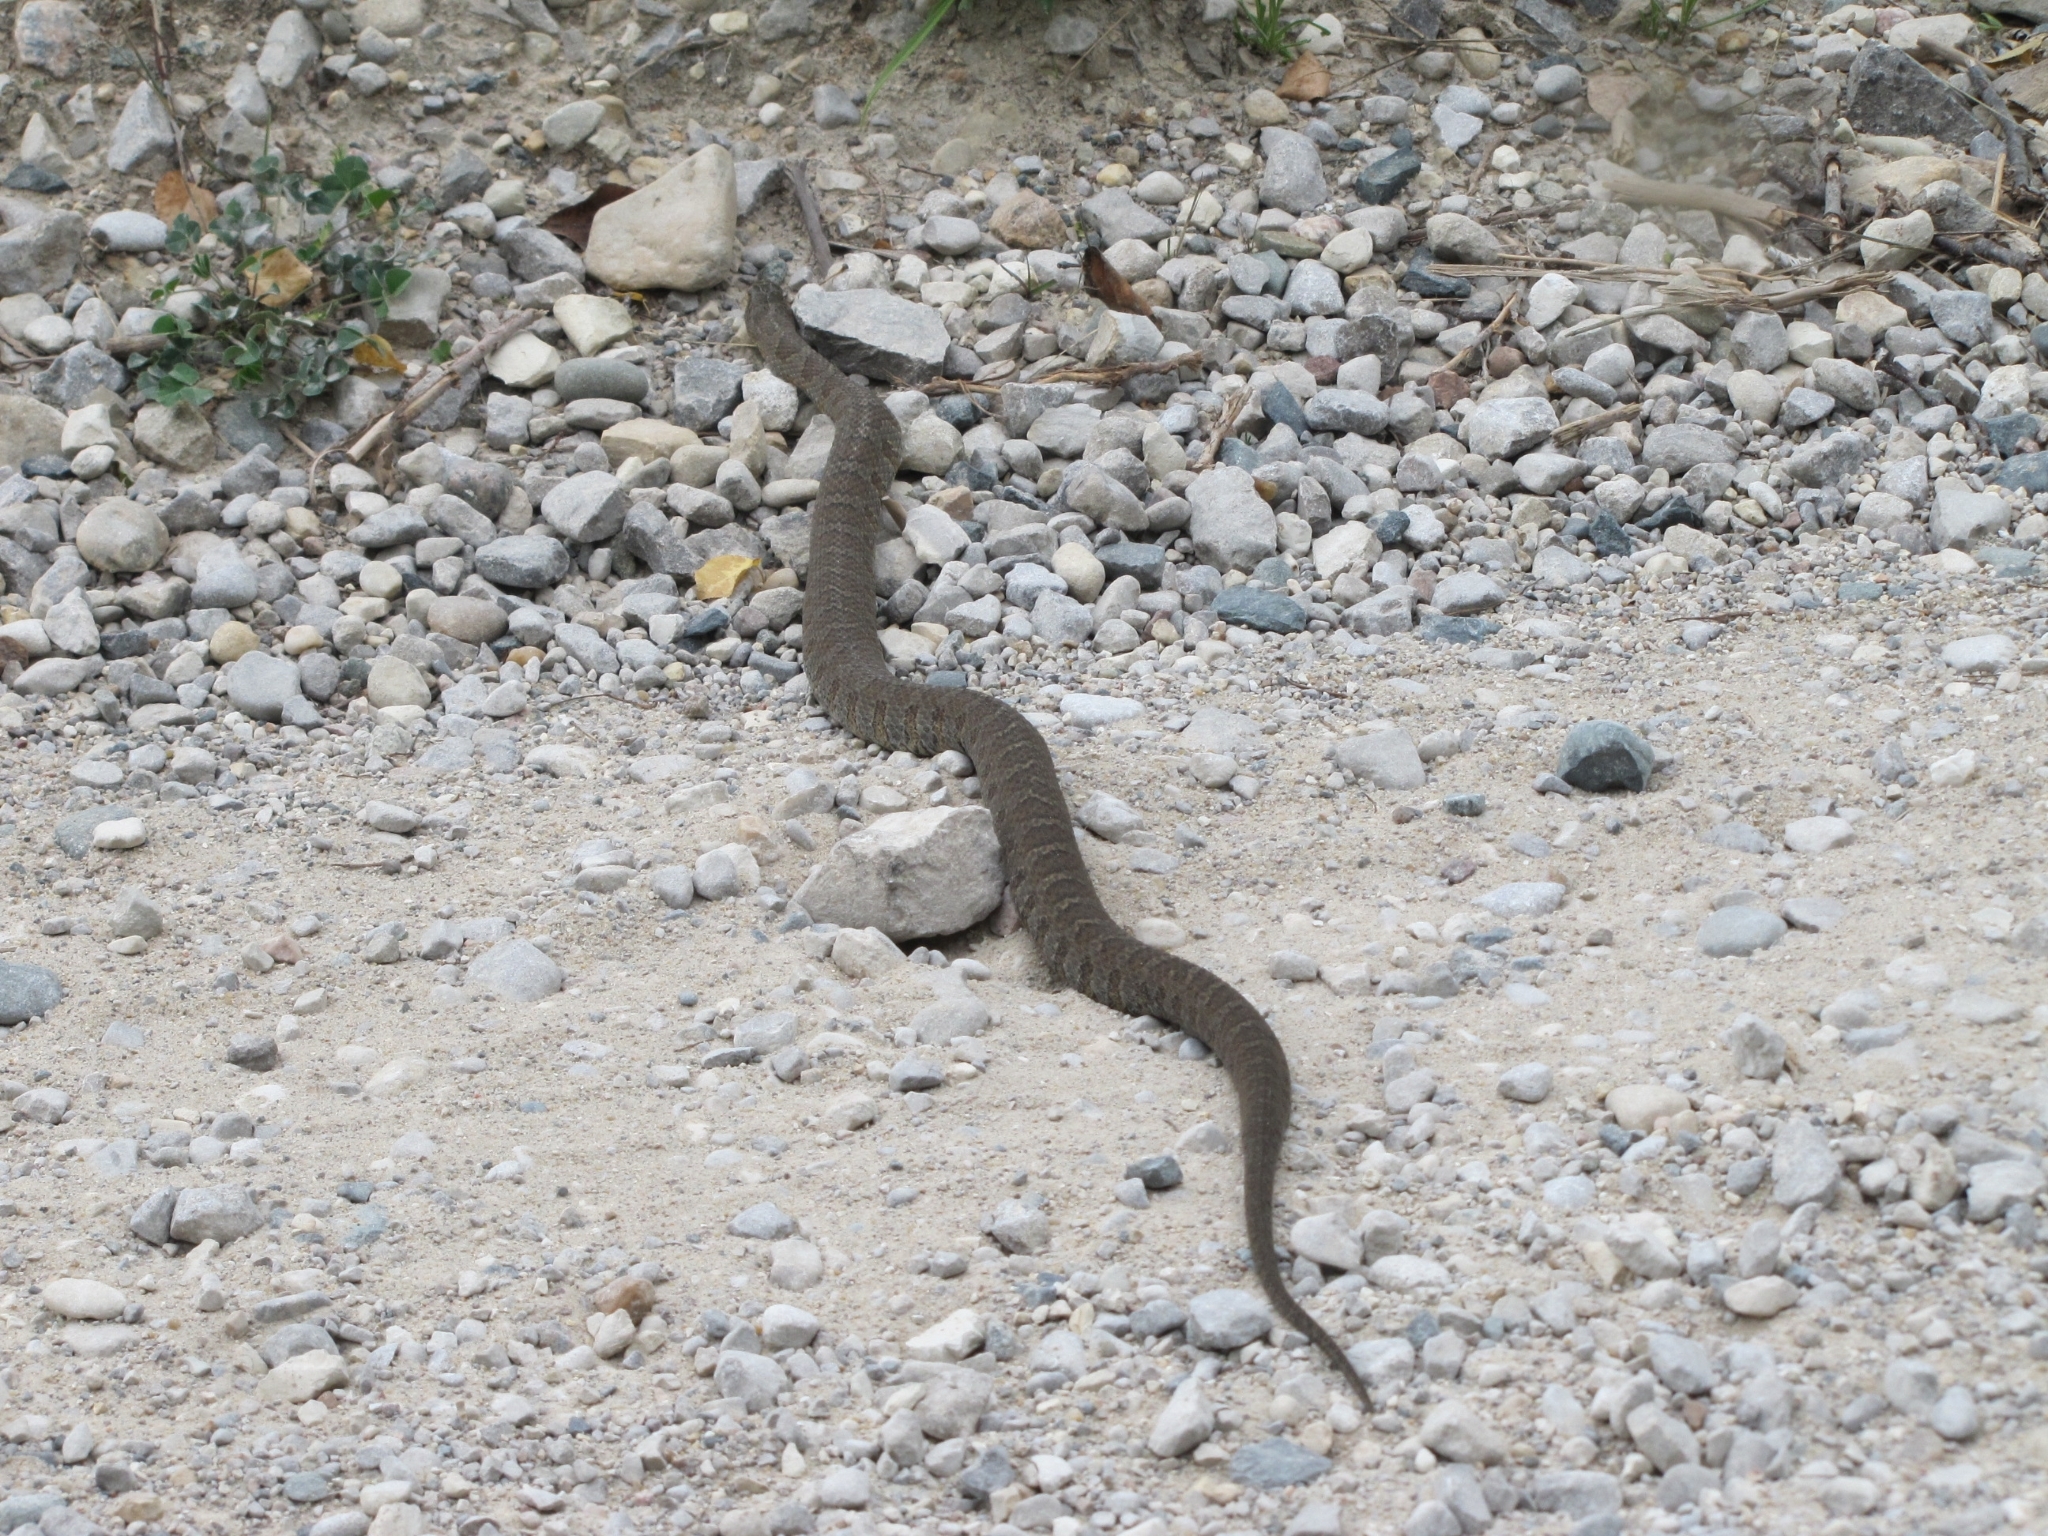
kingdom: Animalia
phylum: Chordata
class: Squamata
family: Colubridae
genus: Nerodia
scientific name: Nerodia sipedon
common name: Northern water snake
